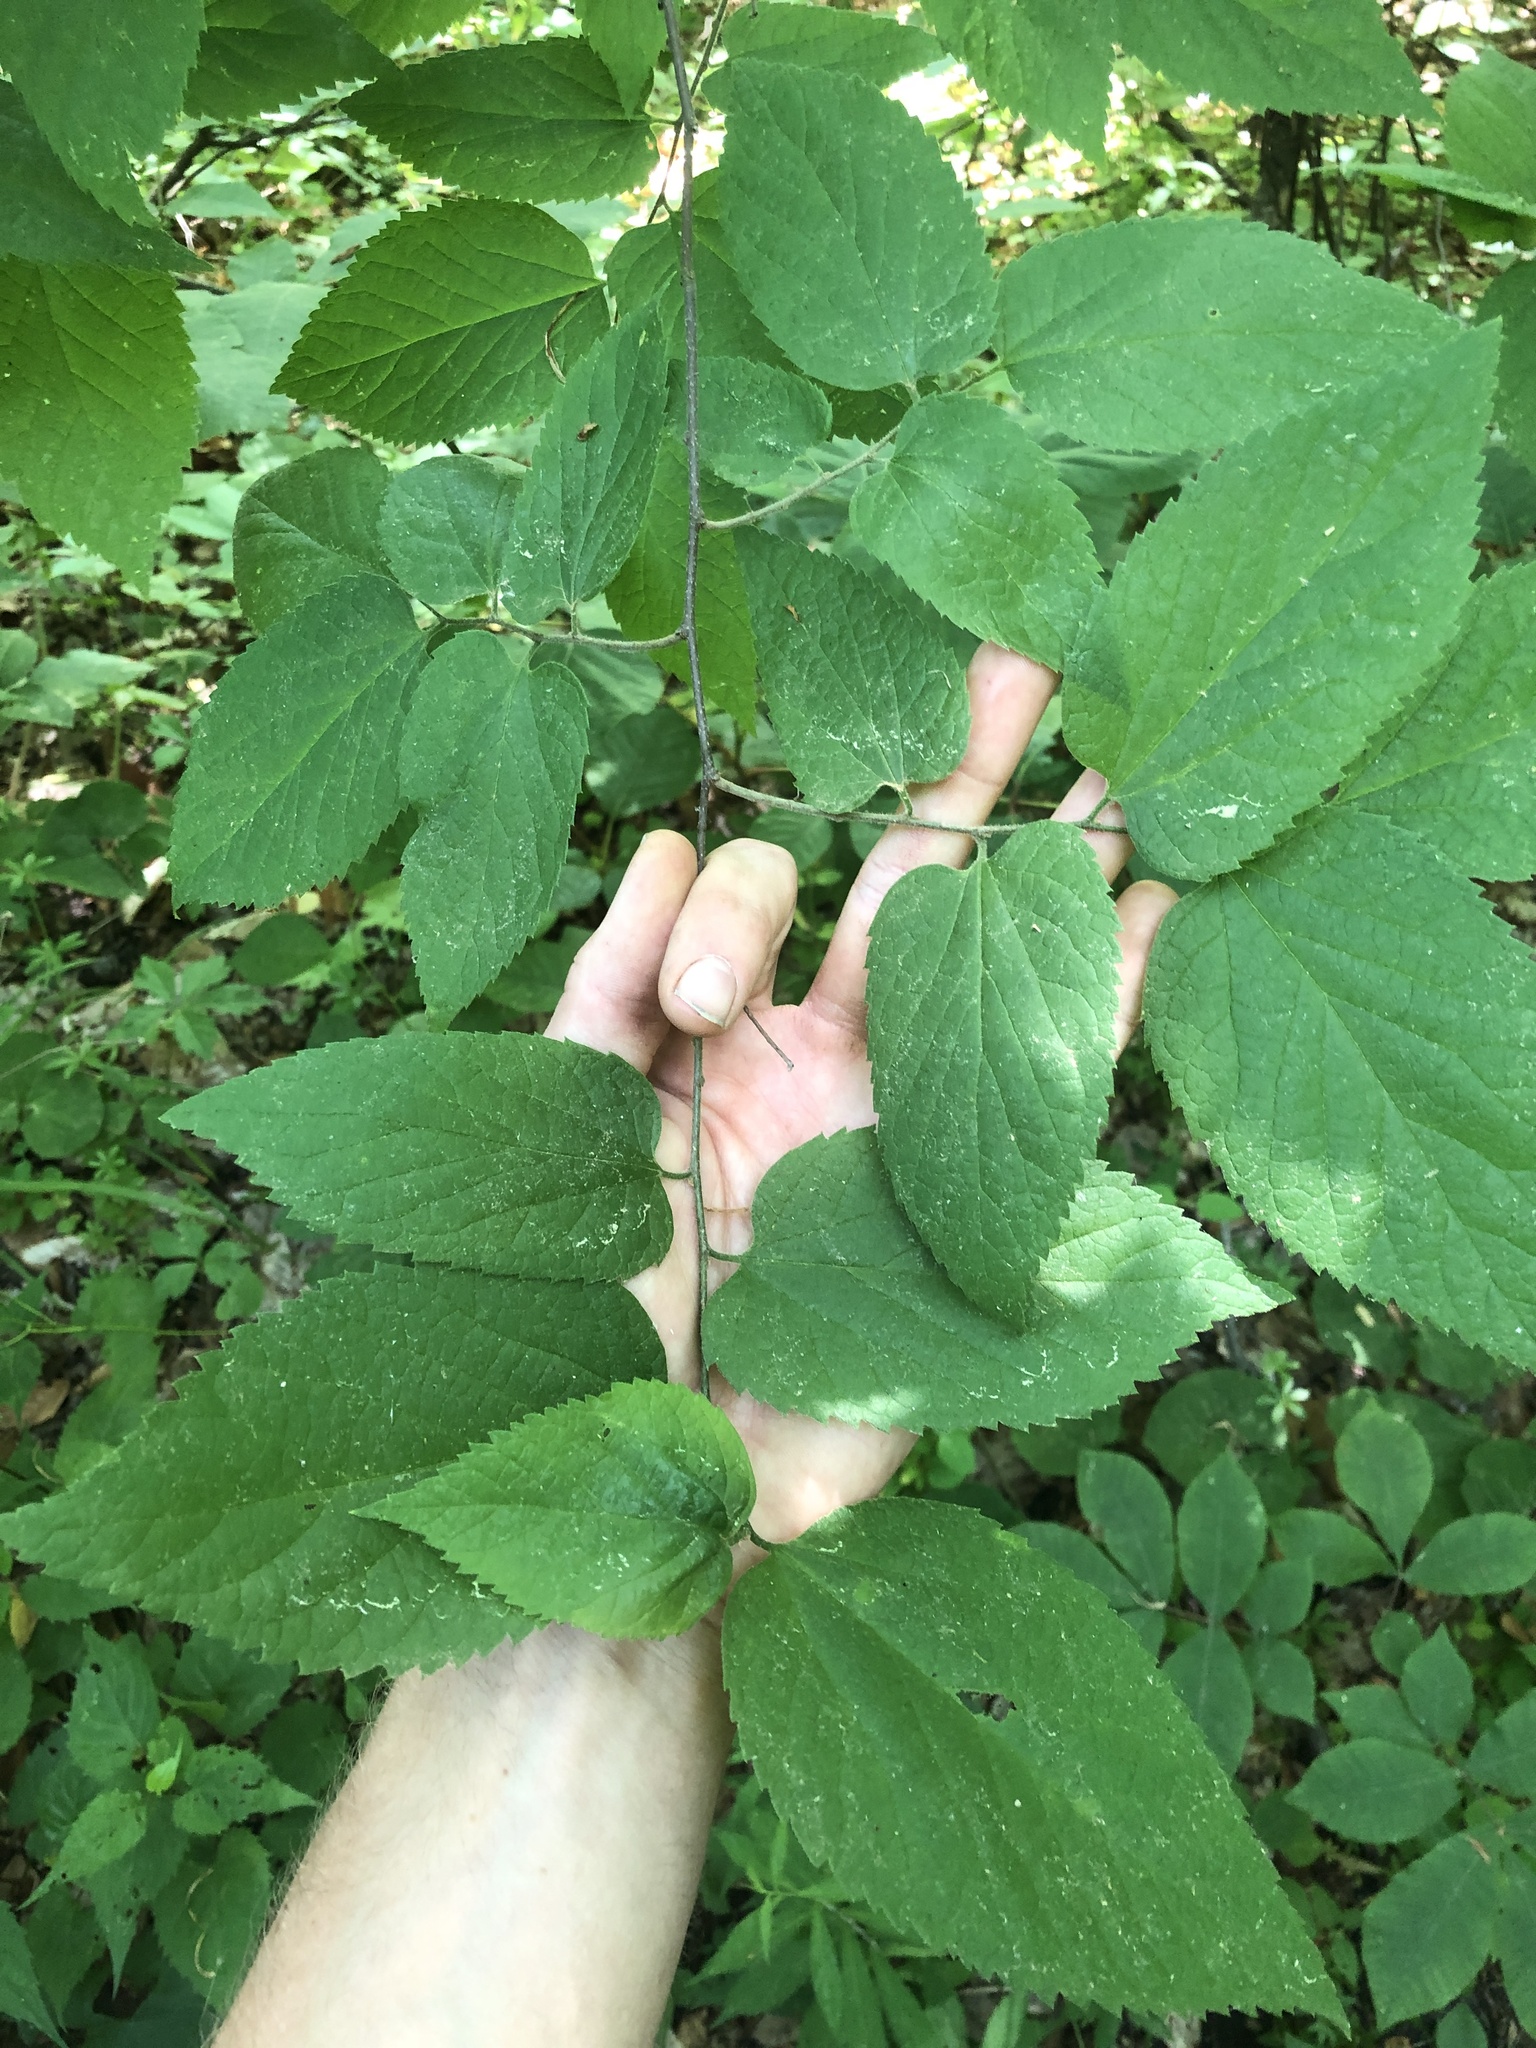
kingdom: Plantae
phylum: Tracheophyta
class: Magnoliopsida
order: Rosales
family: Cannabaceae
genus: Celtis
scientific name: Celtis occidentalis
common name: Common hackberry
